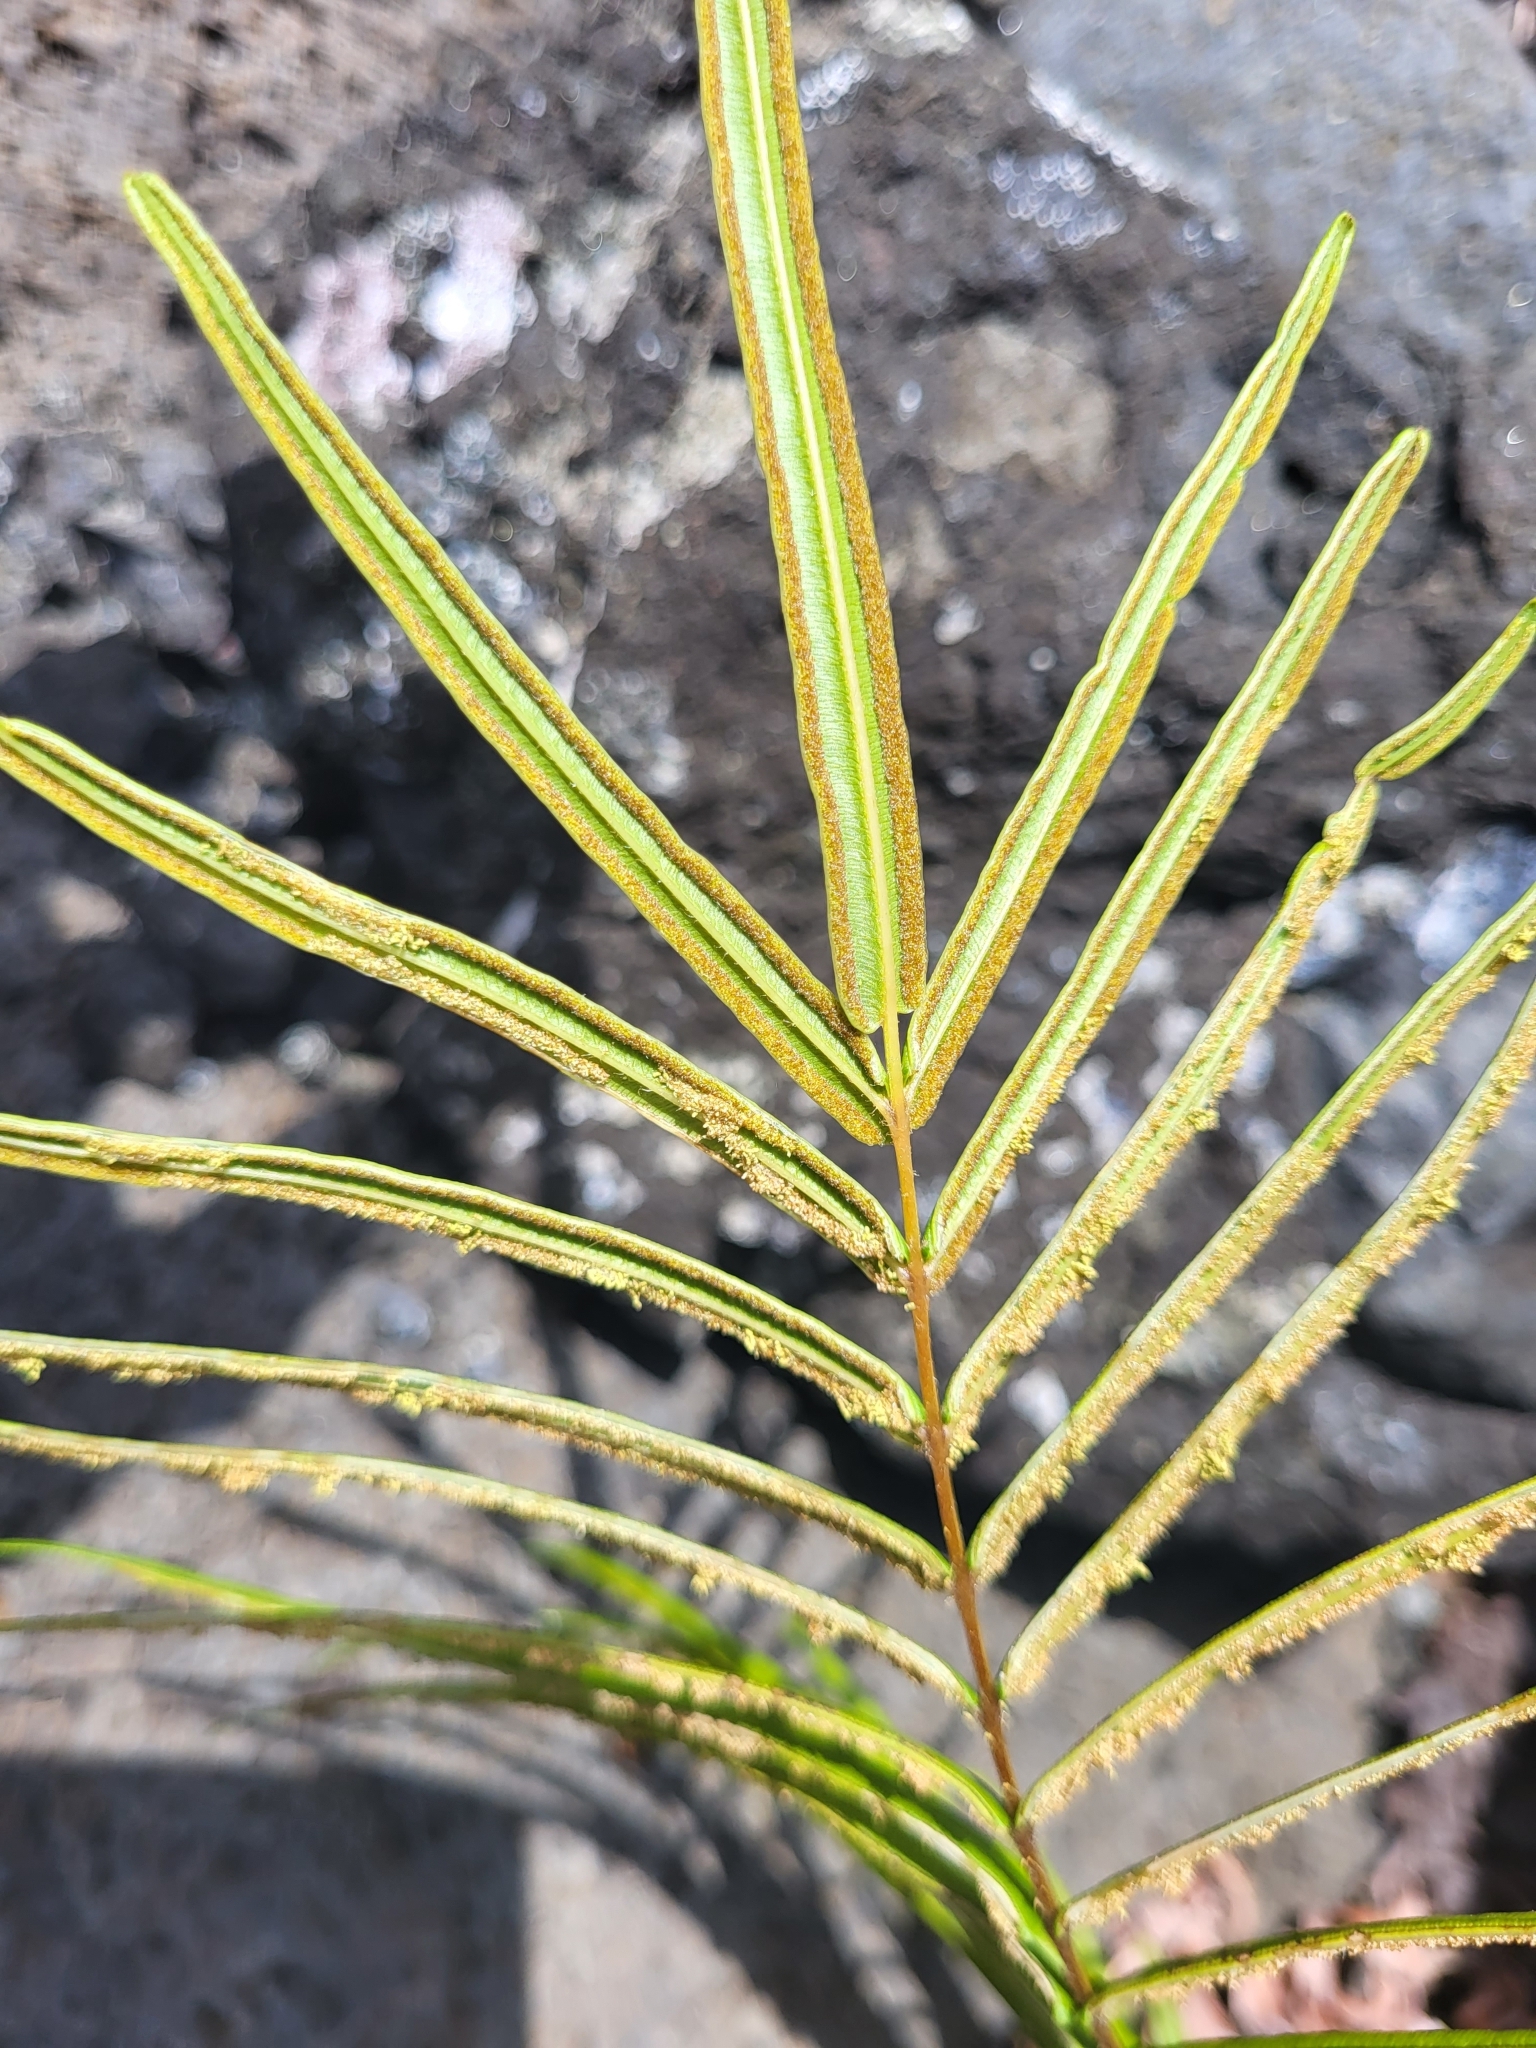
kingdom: Plantae
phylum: Tracheophyta
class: Polypodiopsida
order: Polypodiales
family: Pteridaceae
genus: Pteris
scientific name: Pteris vittata
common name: Ladder brake
